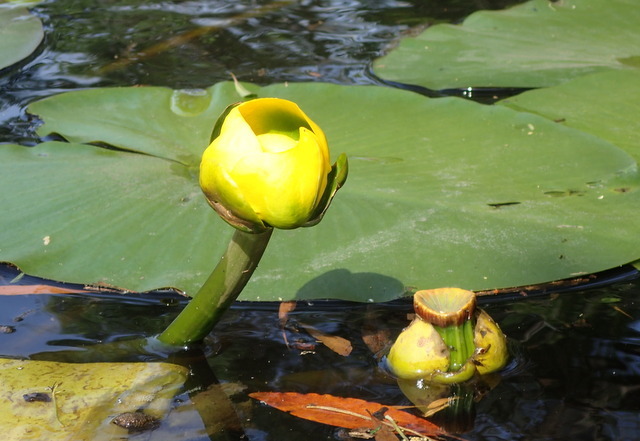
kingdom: Plantae
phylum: Tracheophyta
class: Magnoliopsida
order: Nymphaeales
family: Nymphaeaceae
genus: Nuphar
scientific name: Nuphar advena
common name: Spatter-dock
